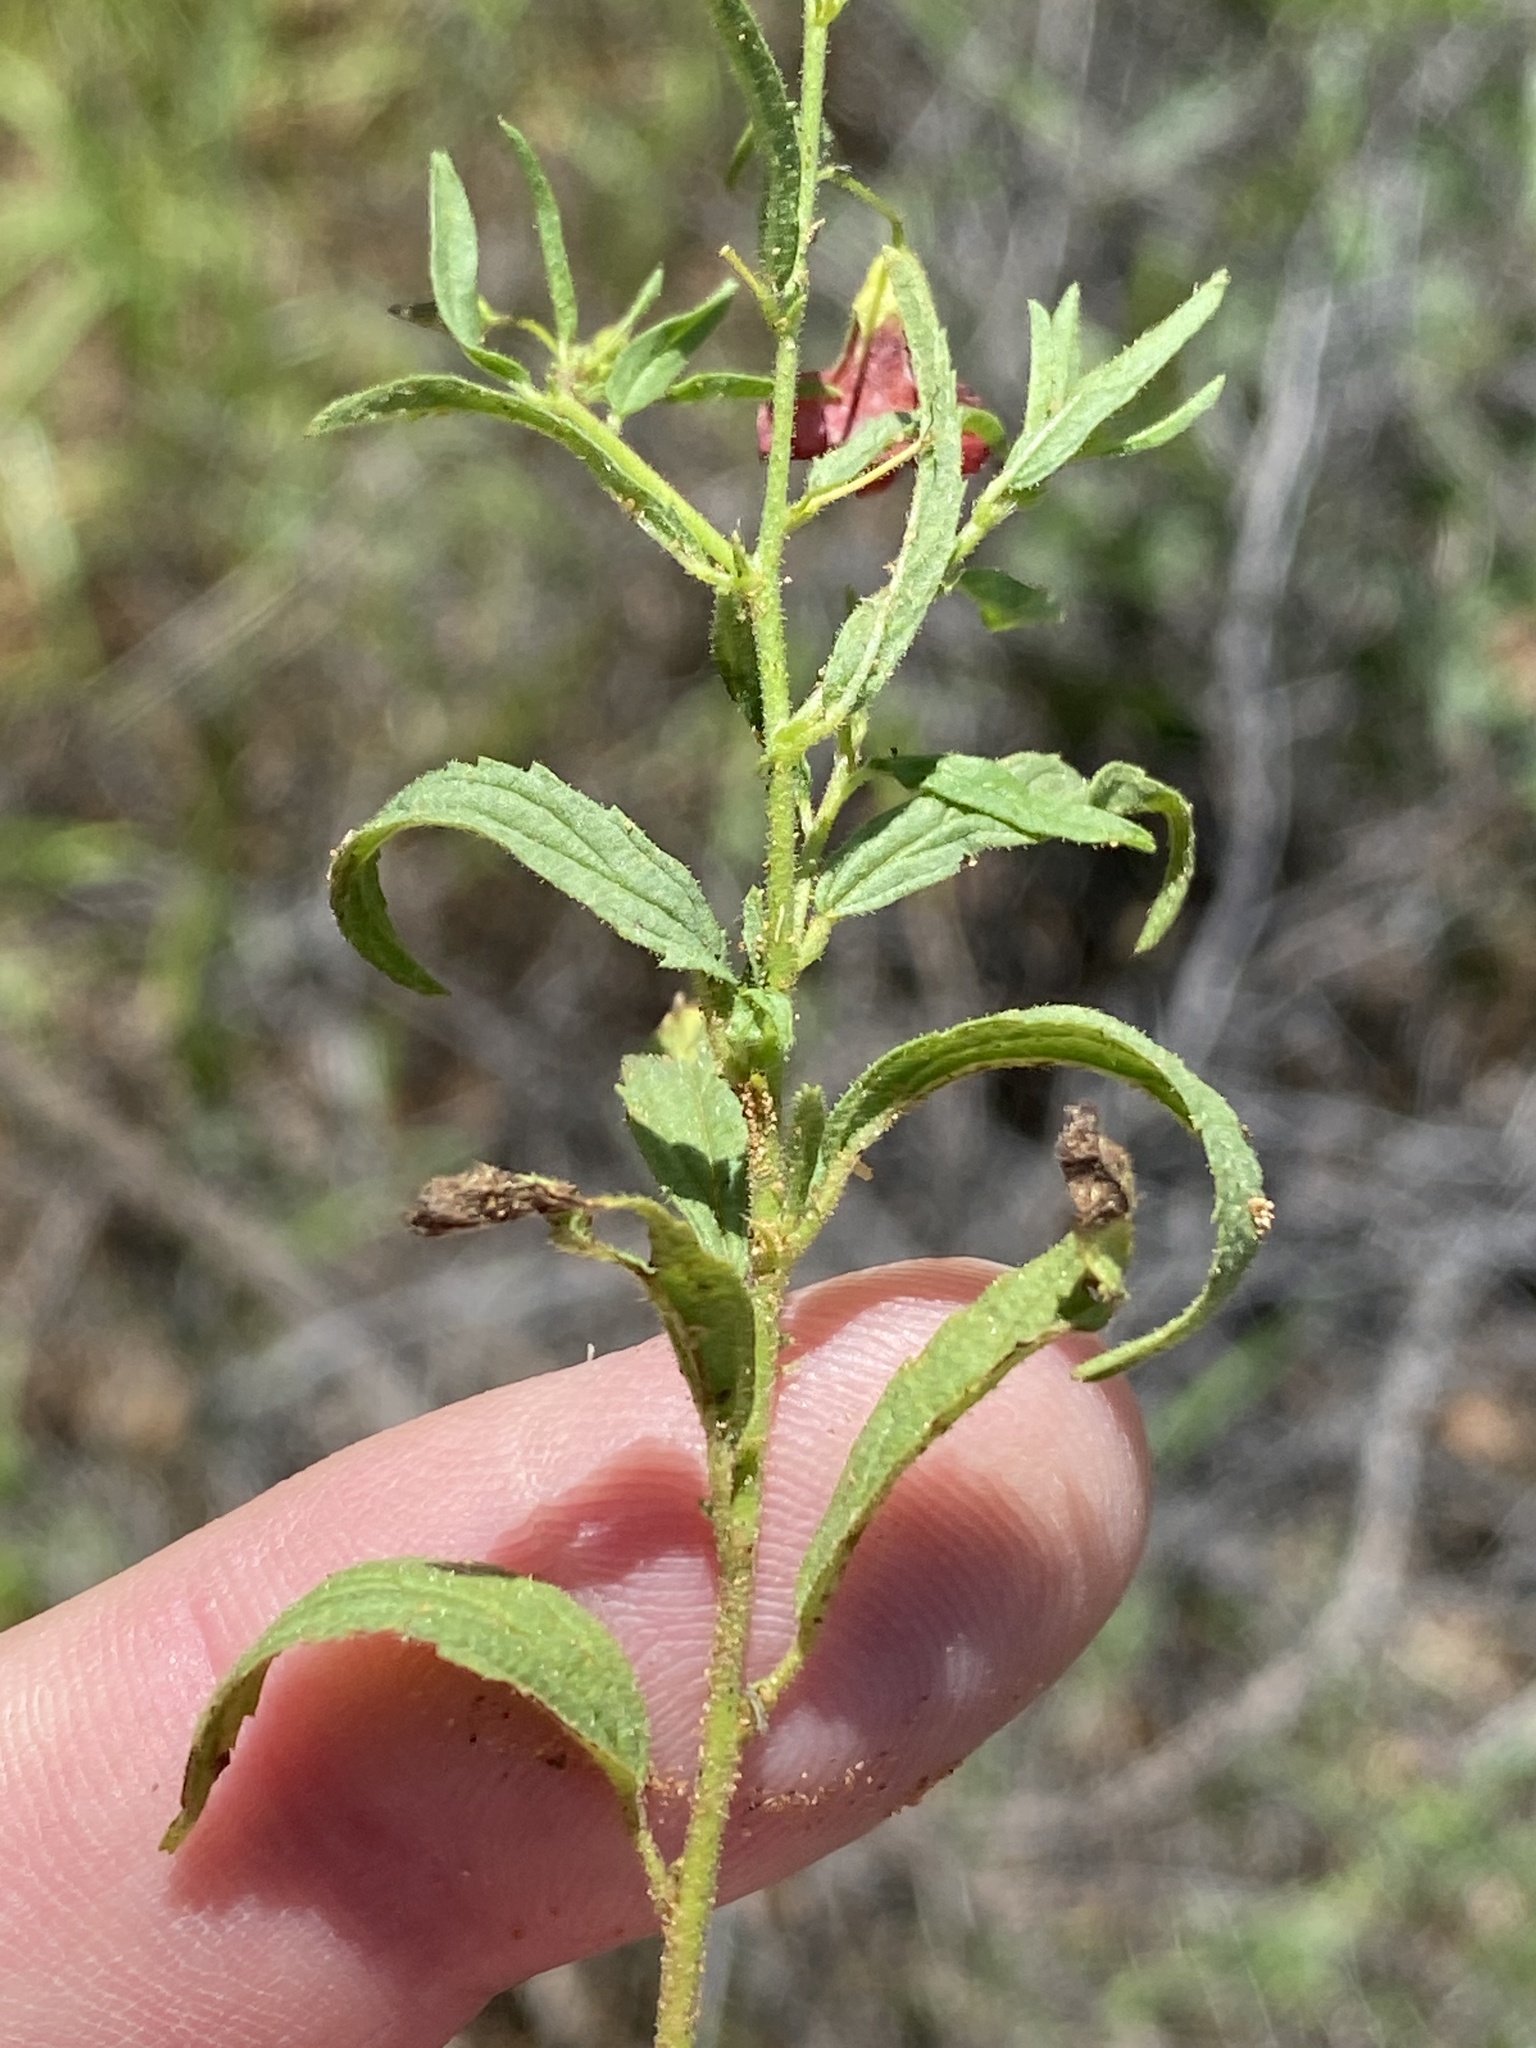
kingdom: Plantae
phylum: Tracheophyta
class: Magnoliopsida
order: Malvales
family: Malvaceae
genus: Hermannia
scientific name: Hermannia modesta
